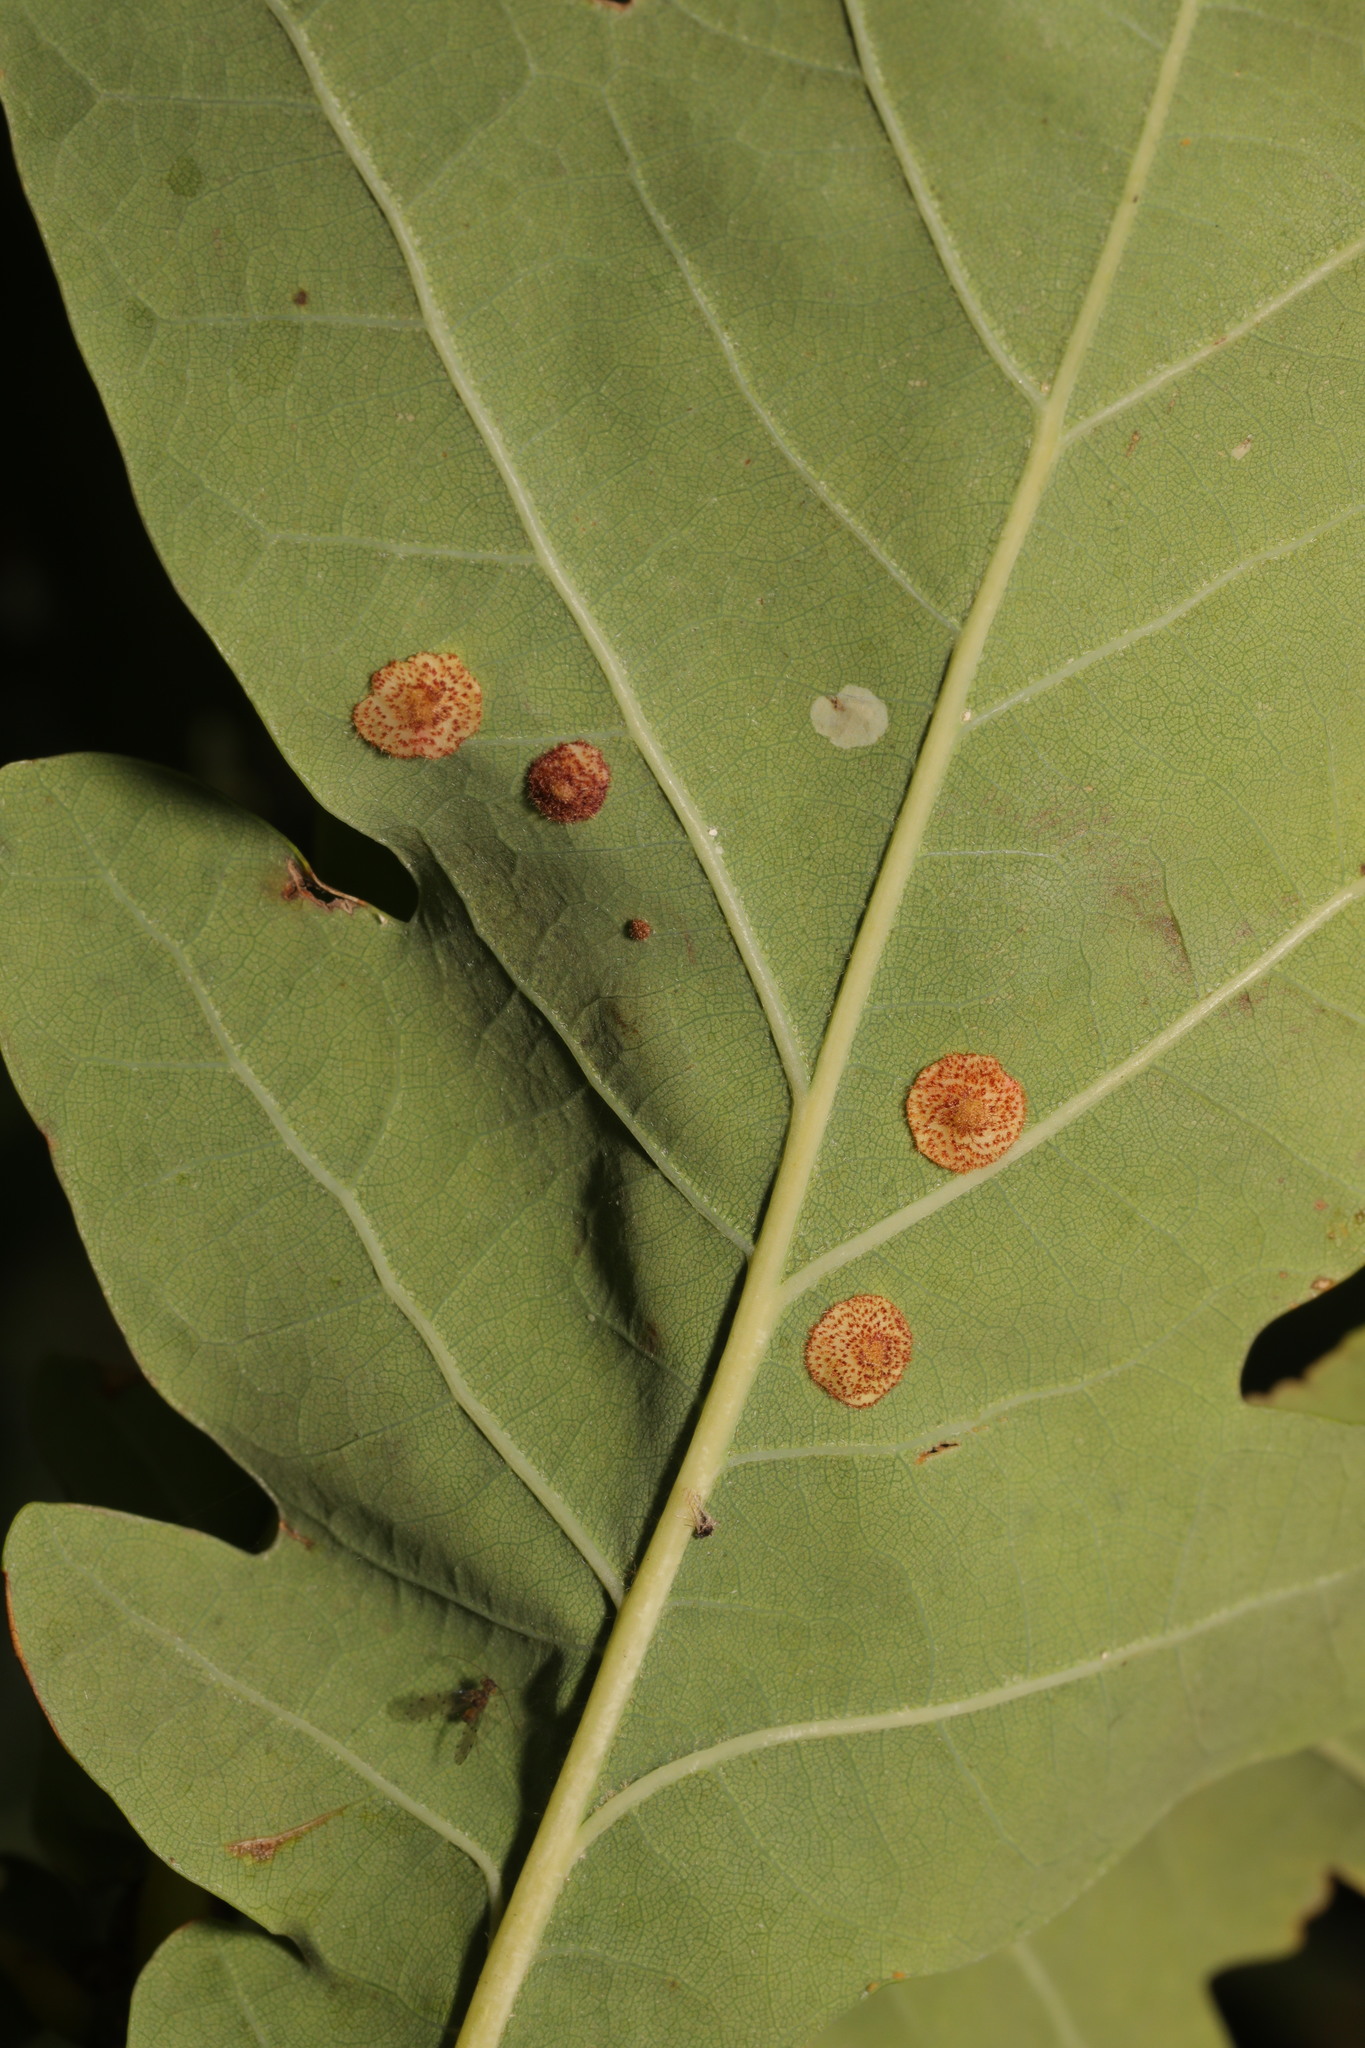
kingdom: Animalia
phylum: Arthropoda
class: Insecta
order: Hymenoptera
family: Cynipidae
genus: Neuroterus
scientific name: Neuroterus quercusbaccarum
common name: Common spangle gall
